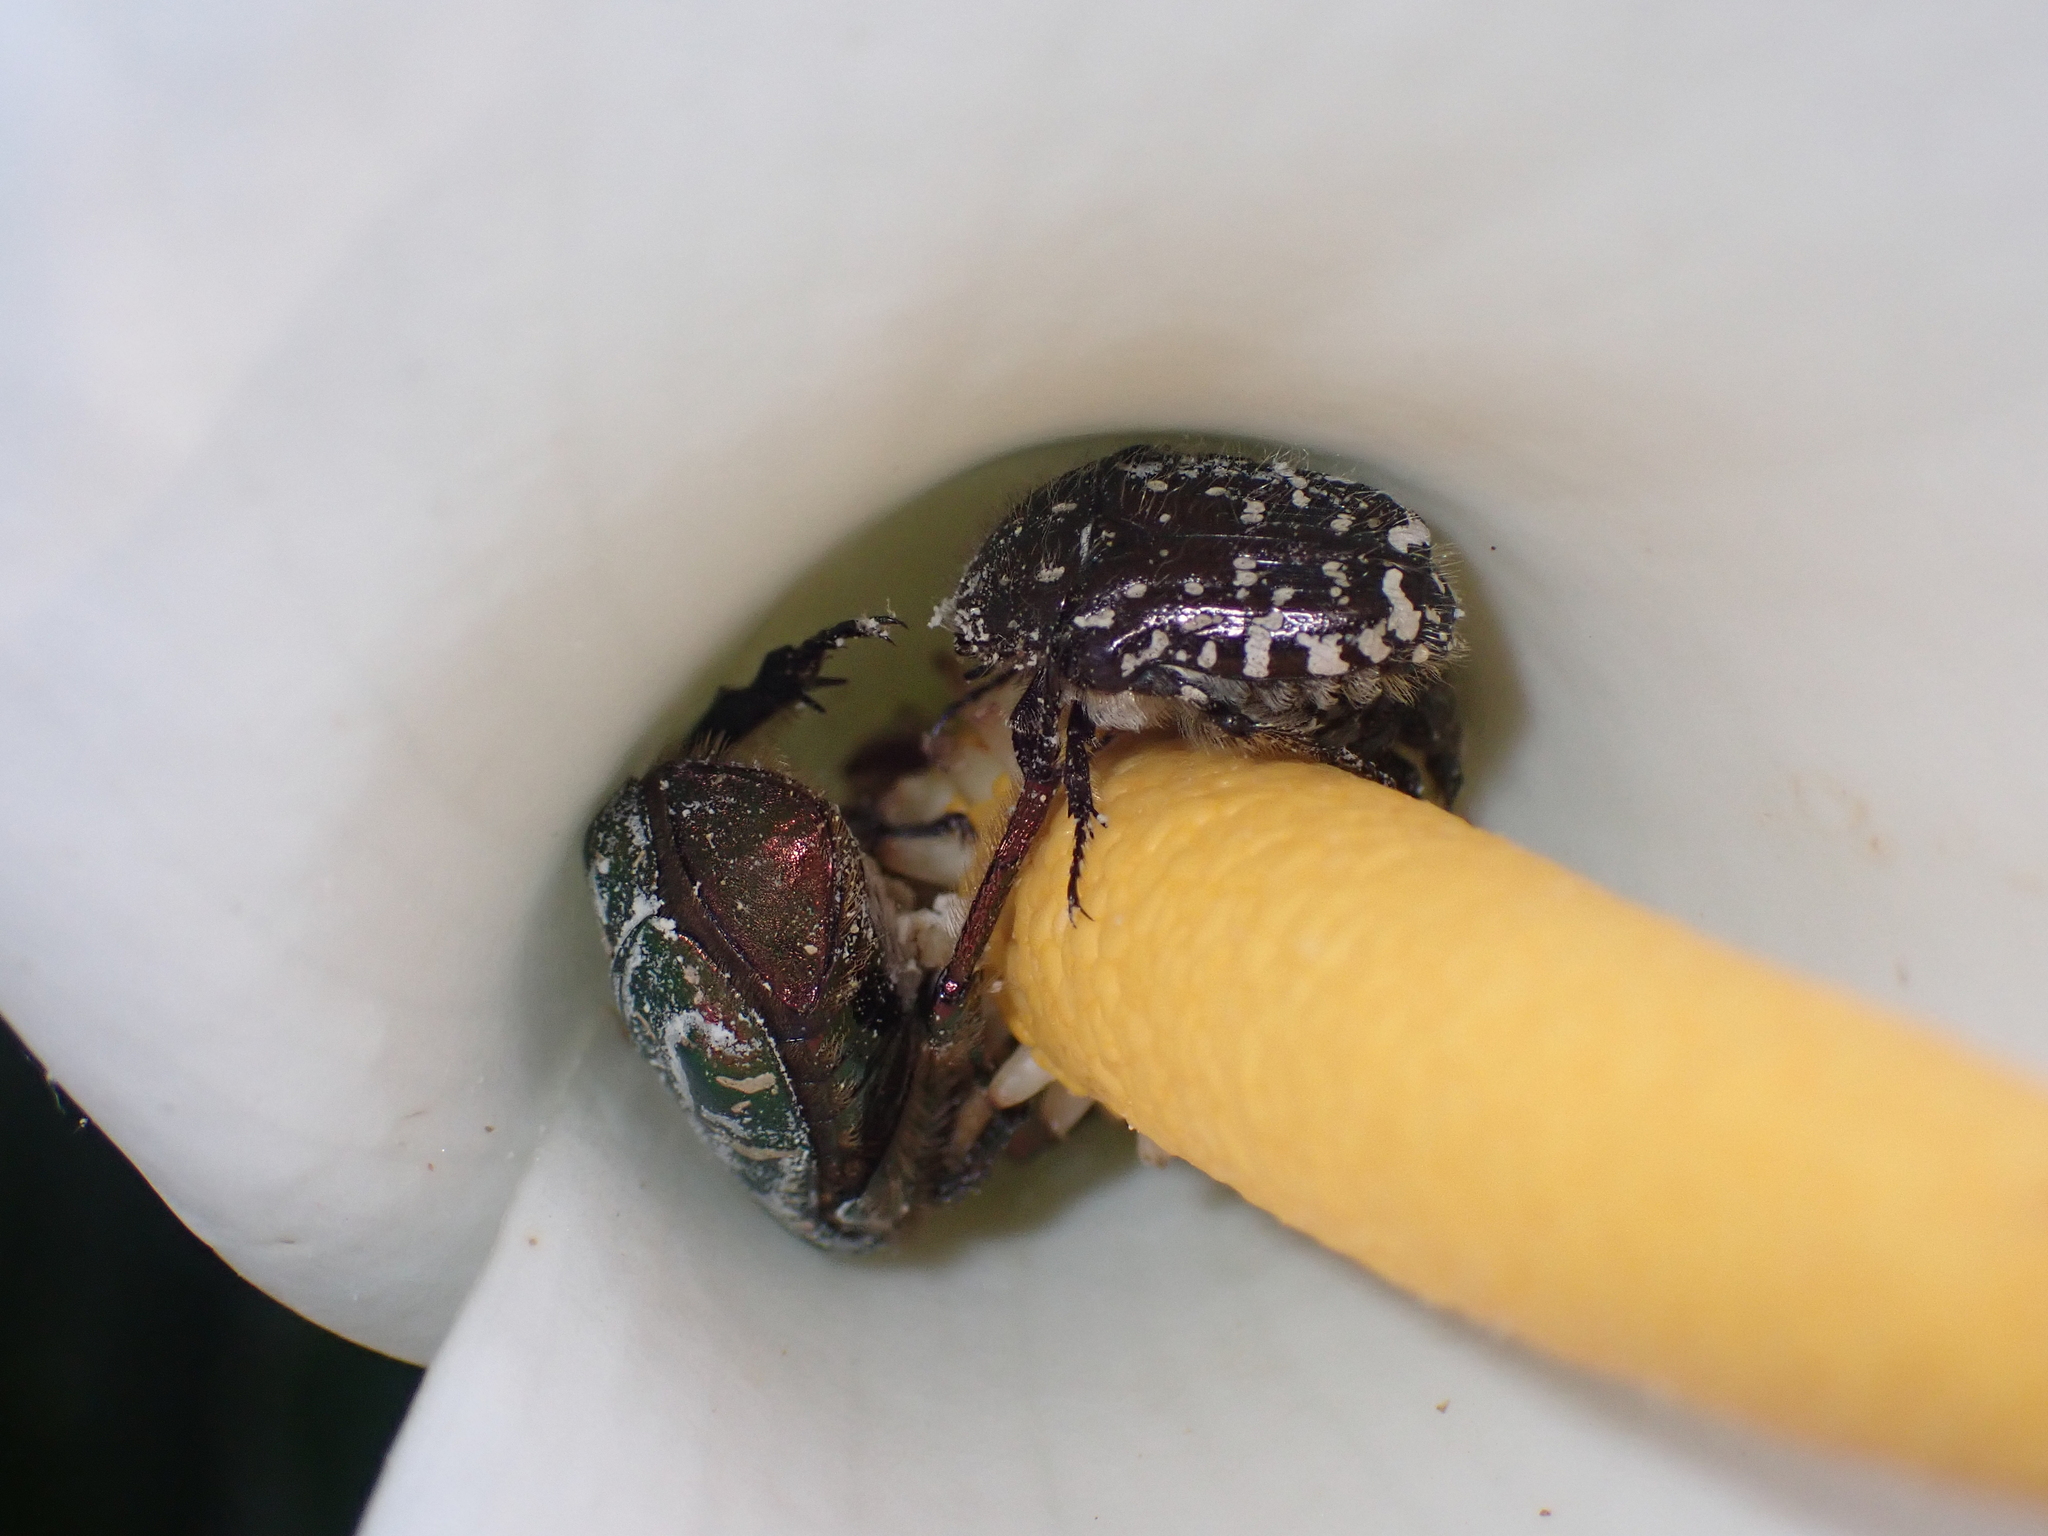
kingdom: Animalia
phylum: Arthropoda
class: Insecta
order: Coleoptera
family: Scarabaeidae
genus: Oxythyrea
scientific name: Oxythyrea funesta
